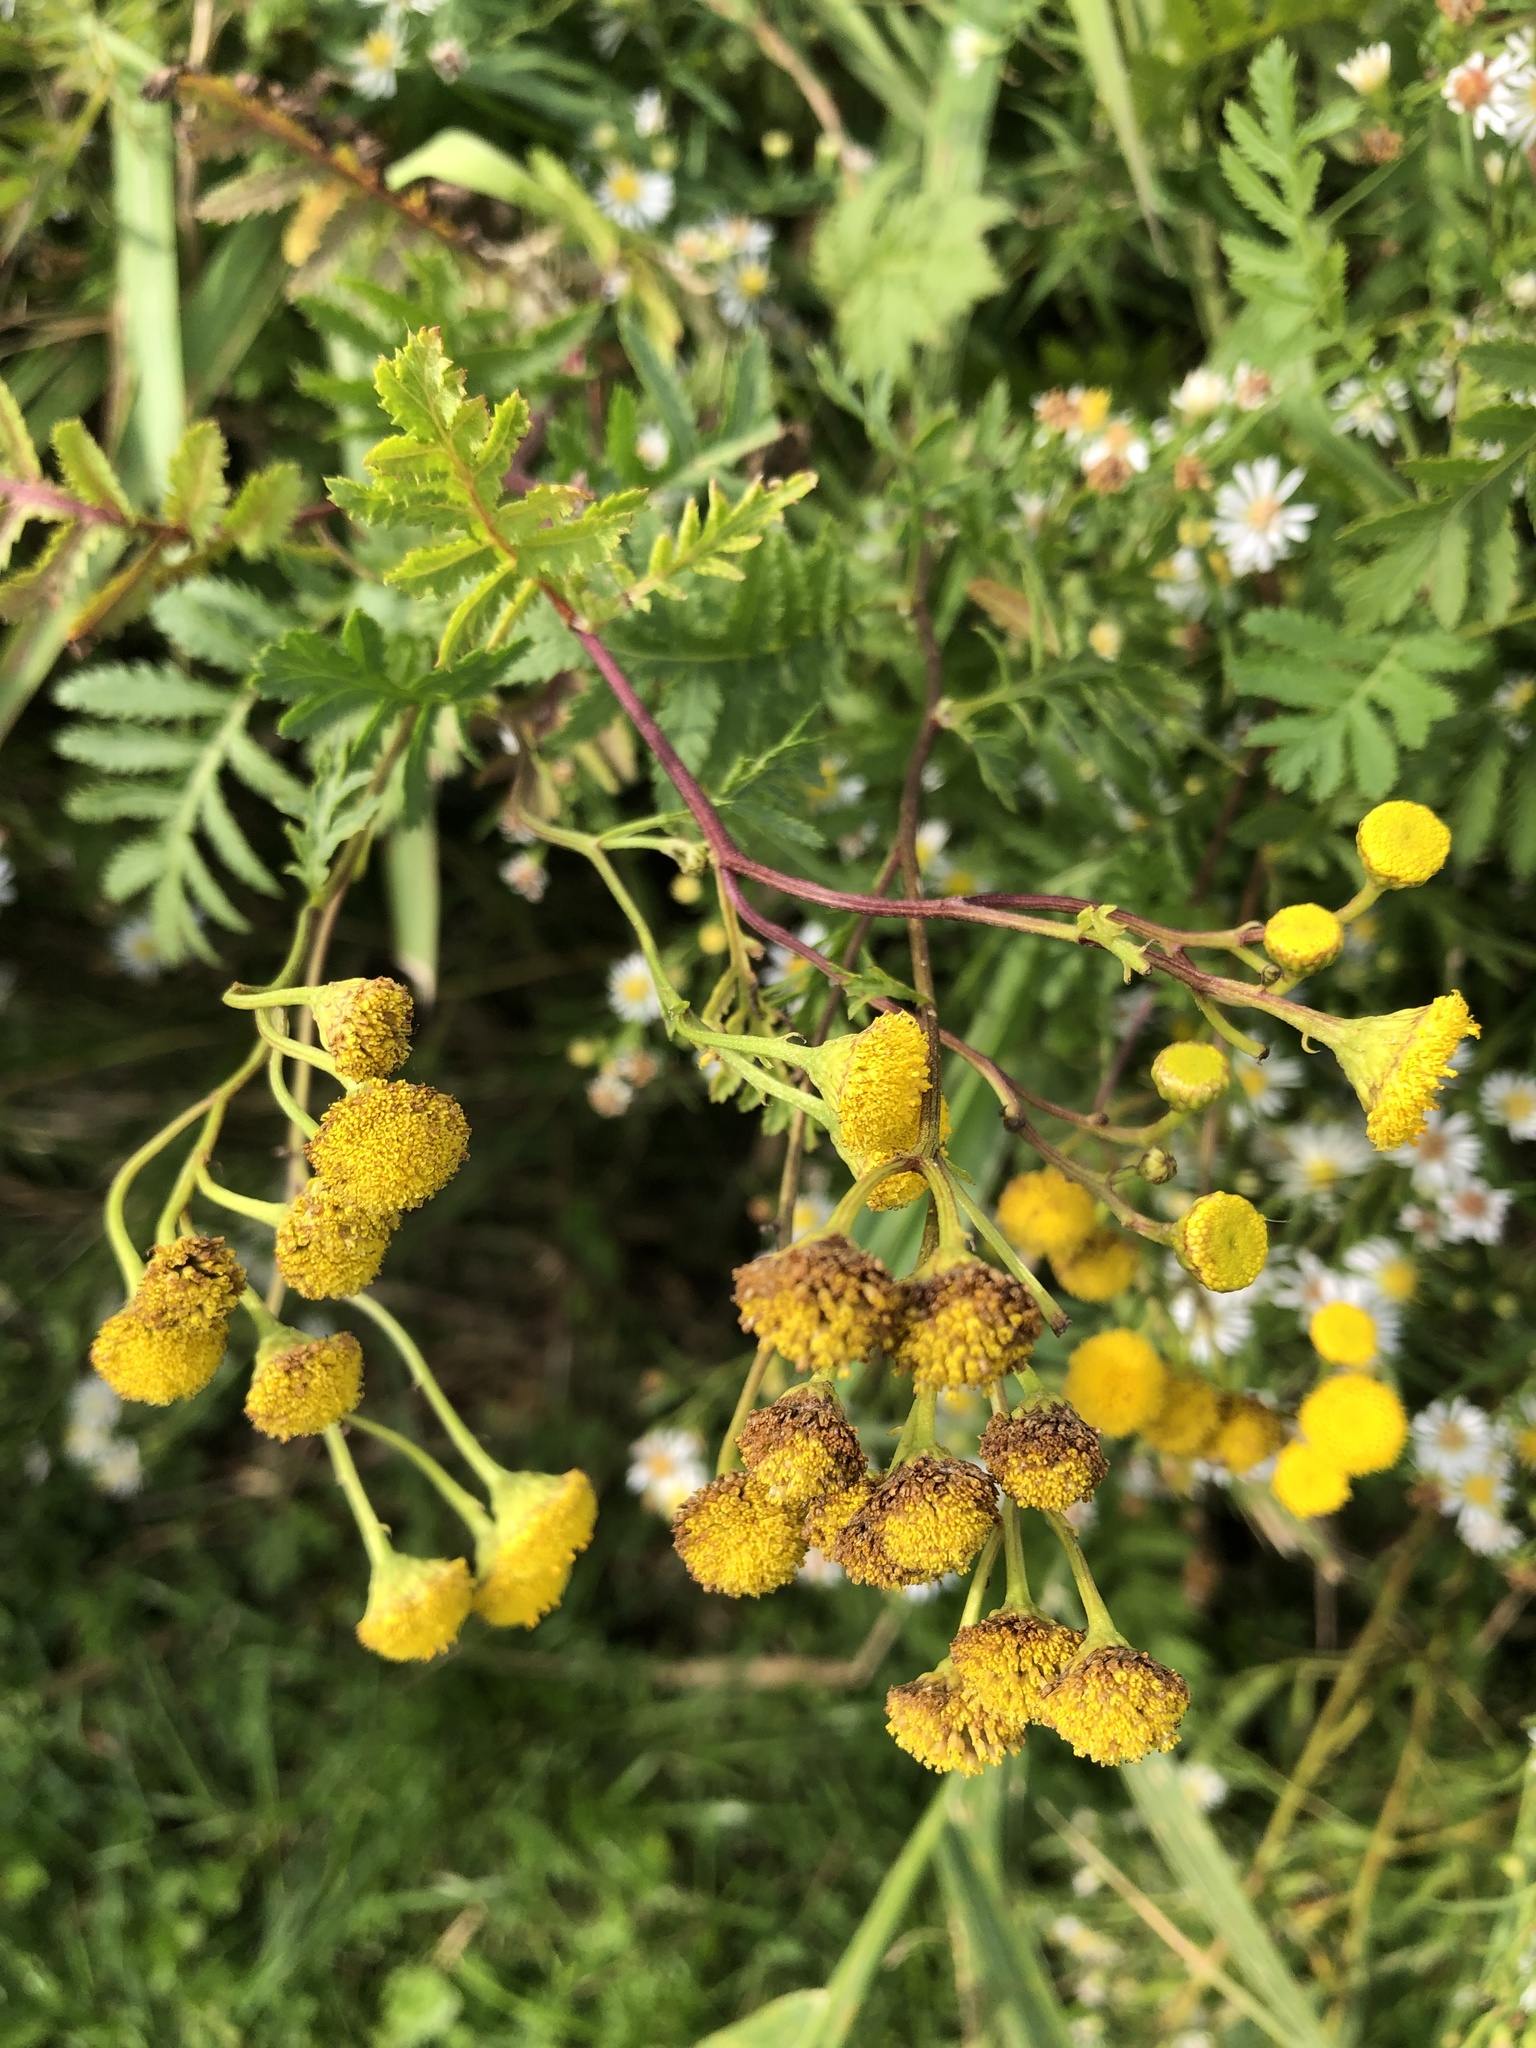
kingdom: Plantae
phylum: Tracheophyta
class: Magnoliopsida
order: Asterales
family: Asteraceae
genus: Tanacetum
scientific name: Tanacetum vulgare
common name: Common tansy
